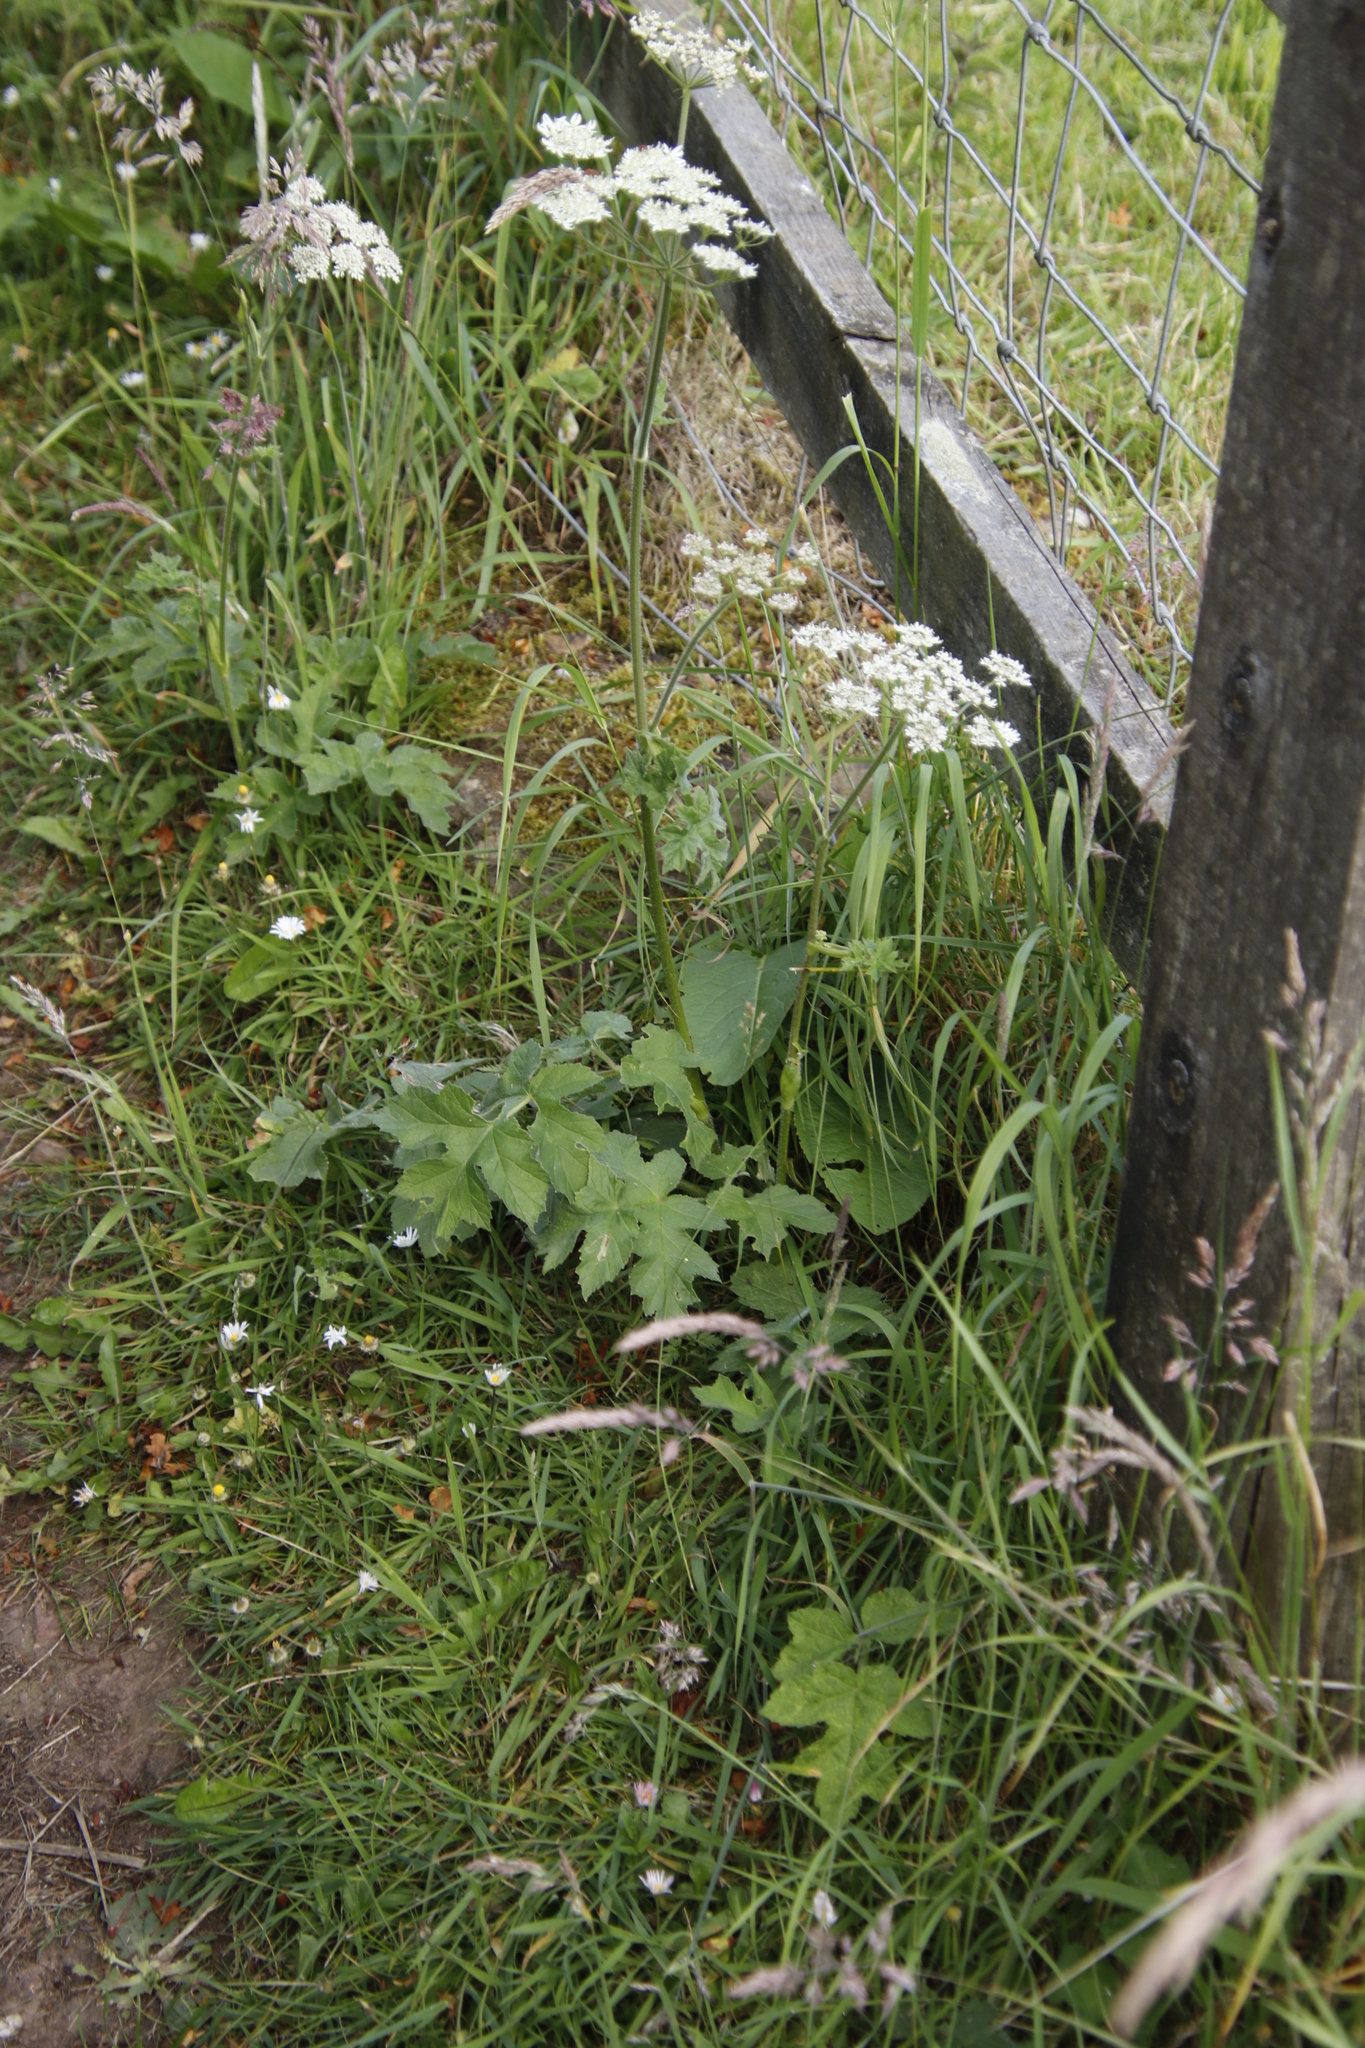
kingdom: Plantae
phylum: Tracheophyta
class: Magnoliopsida
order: Apiales
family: Apiaceae
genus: Heracleum
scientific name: Heracleum sphondylium
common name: Hogweed
